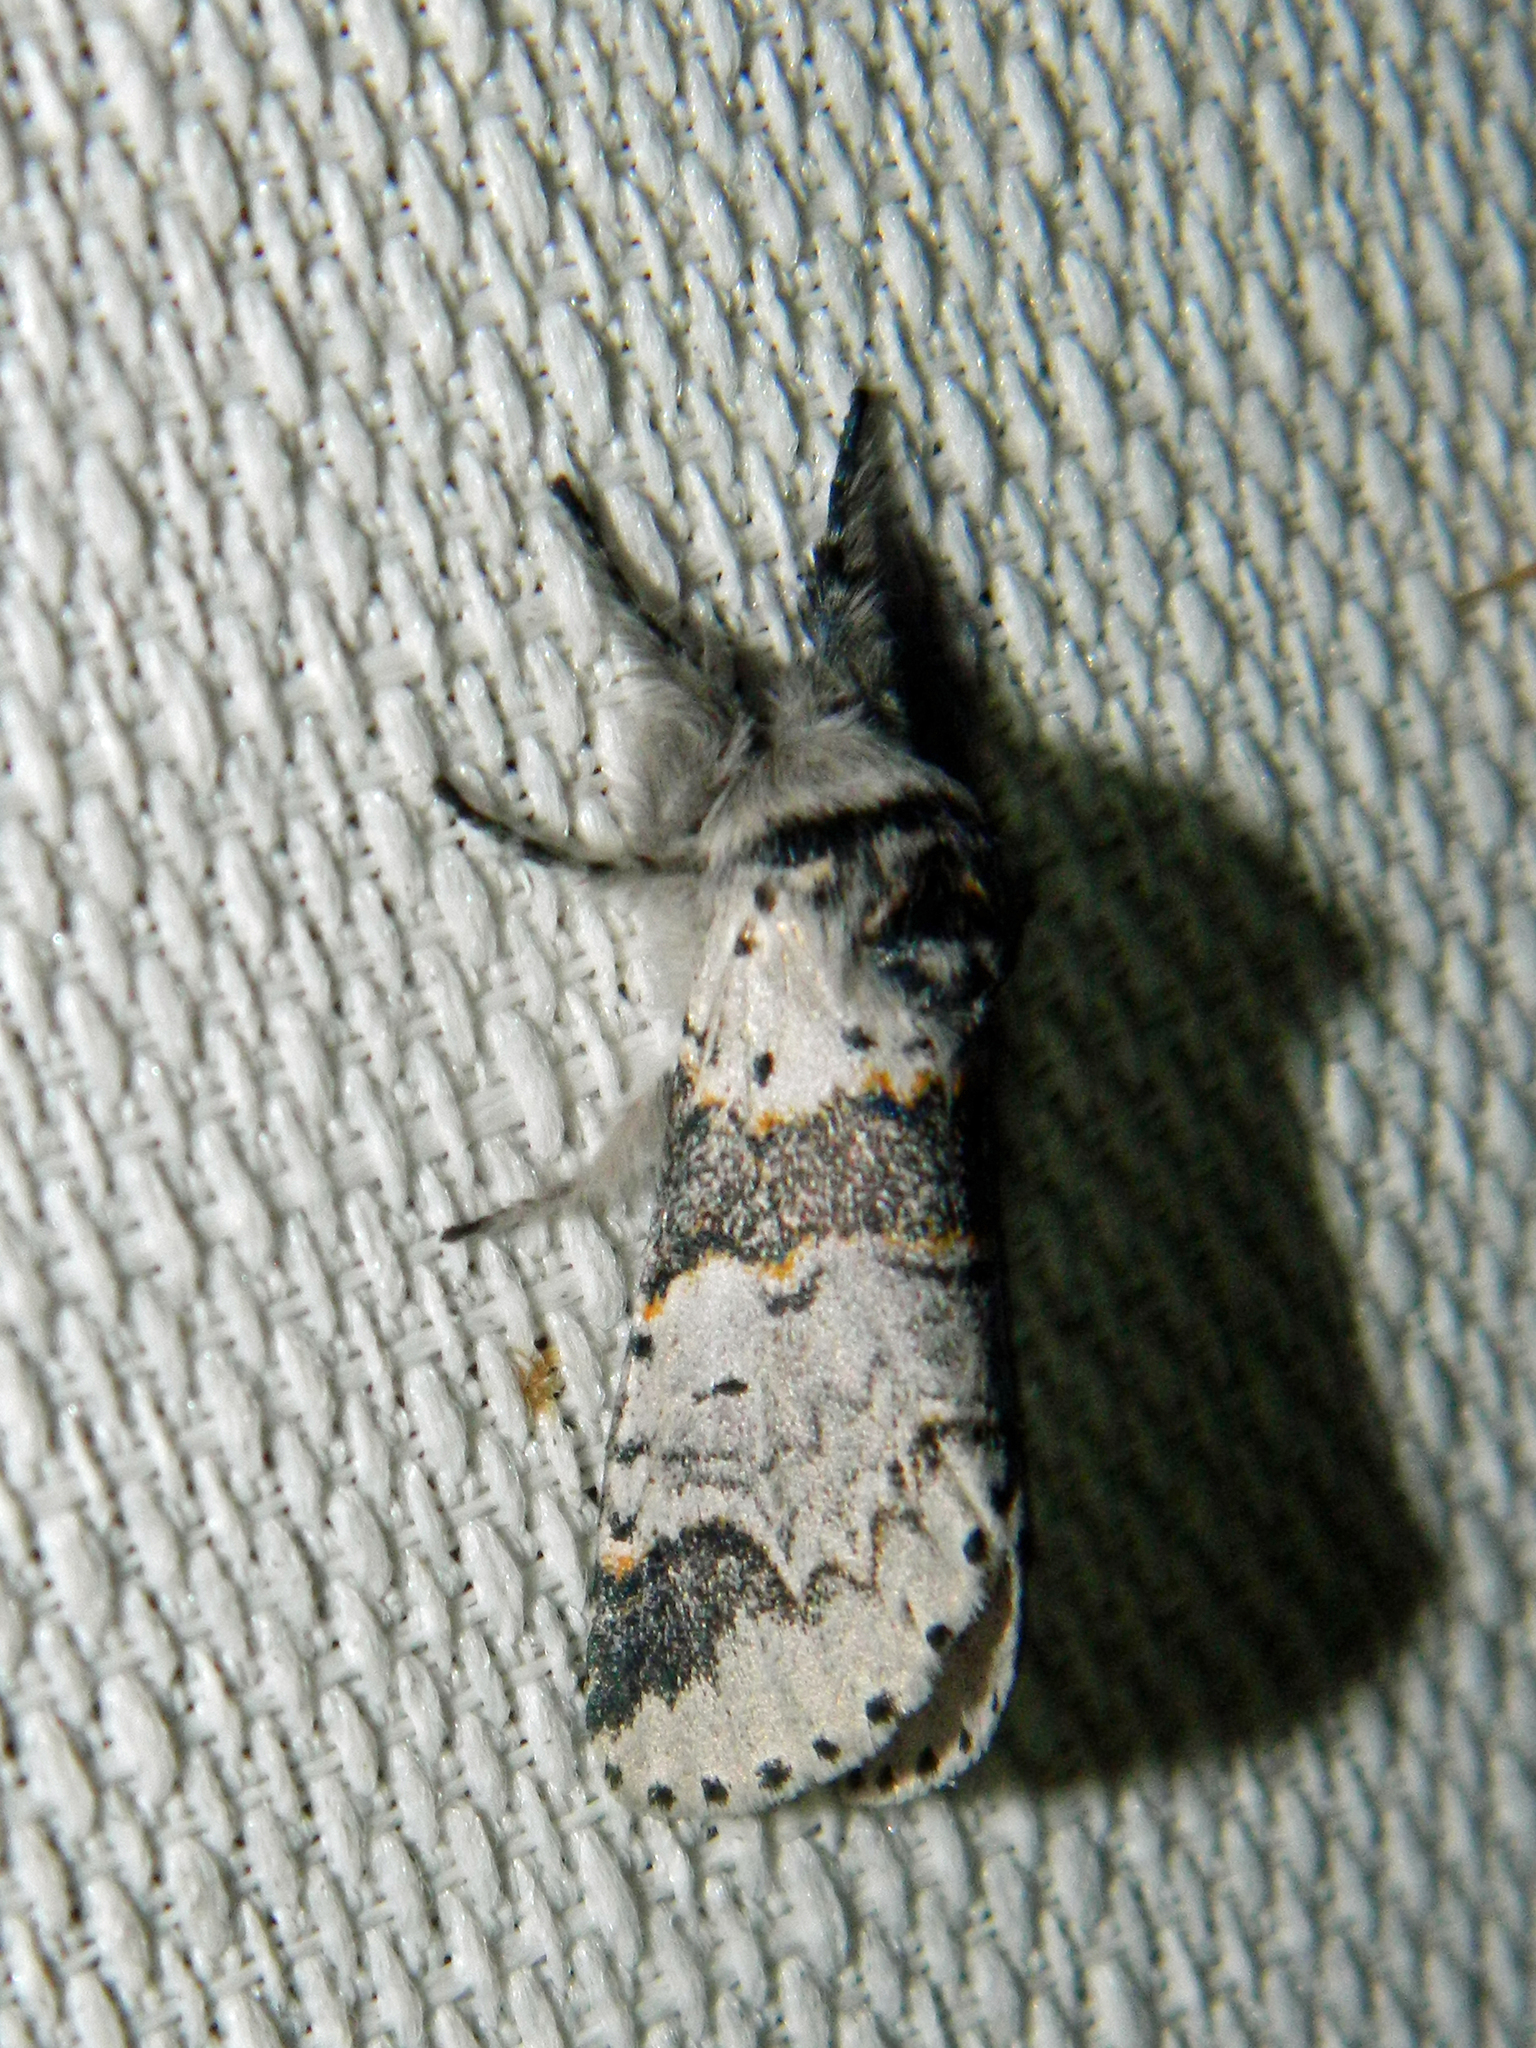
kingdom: Animalia
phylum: Arthropoda
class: Insecta
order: Lepidoptera
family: Notodontidae
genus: Furcula
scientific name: Furcula occidentalis
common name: Western furcula moth
